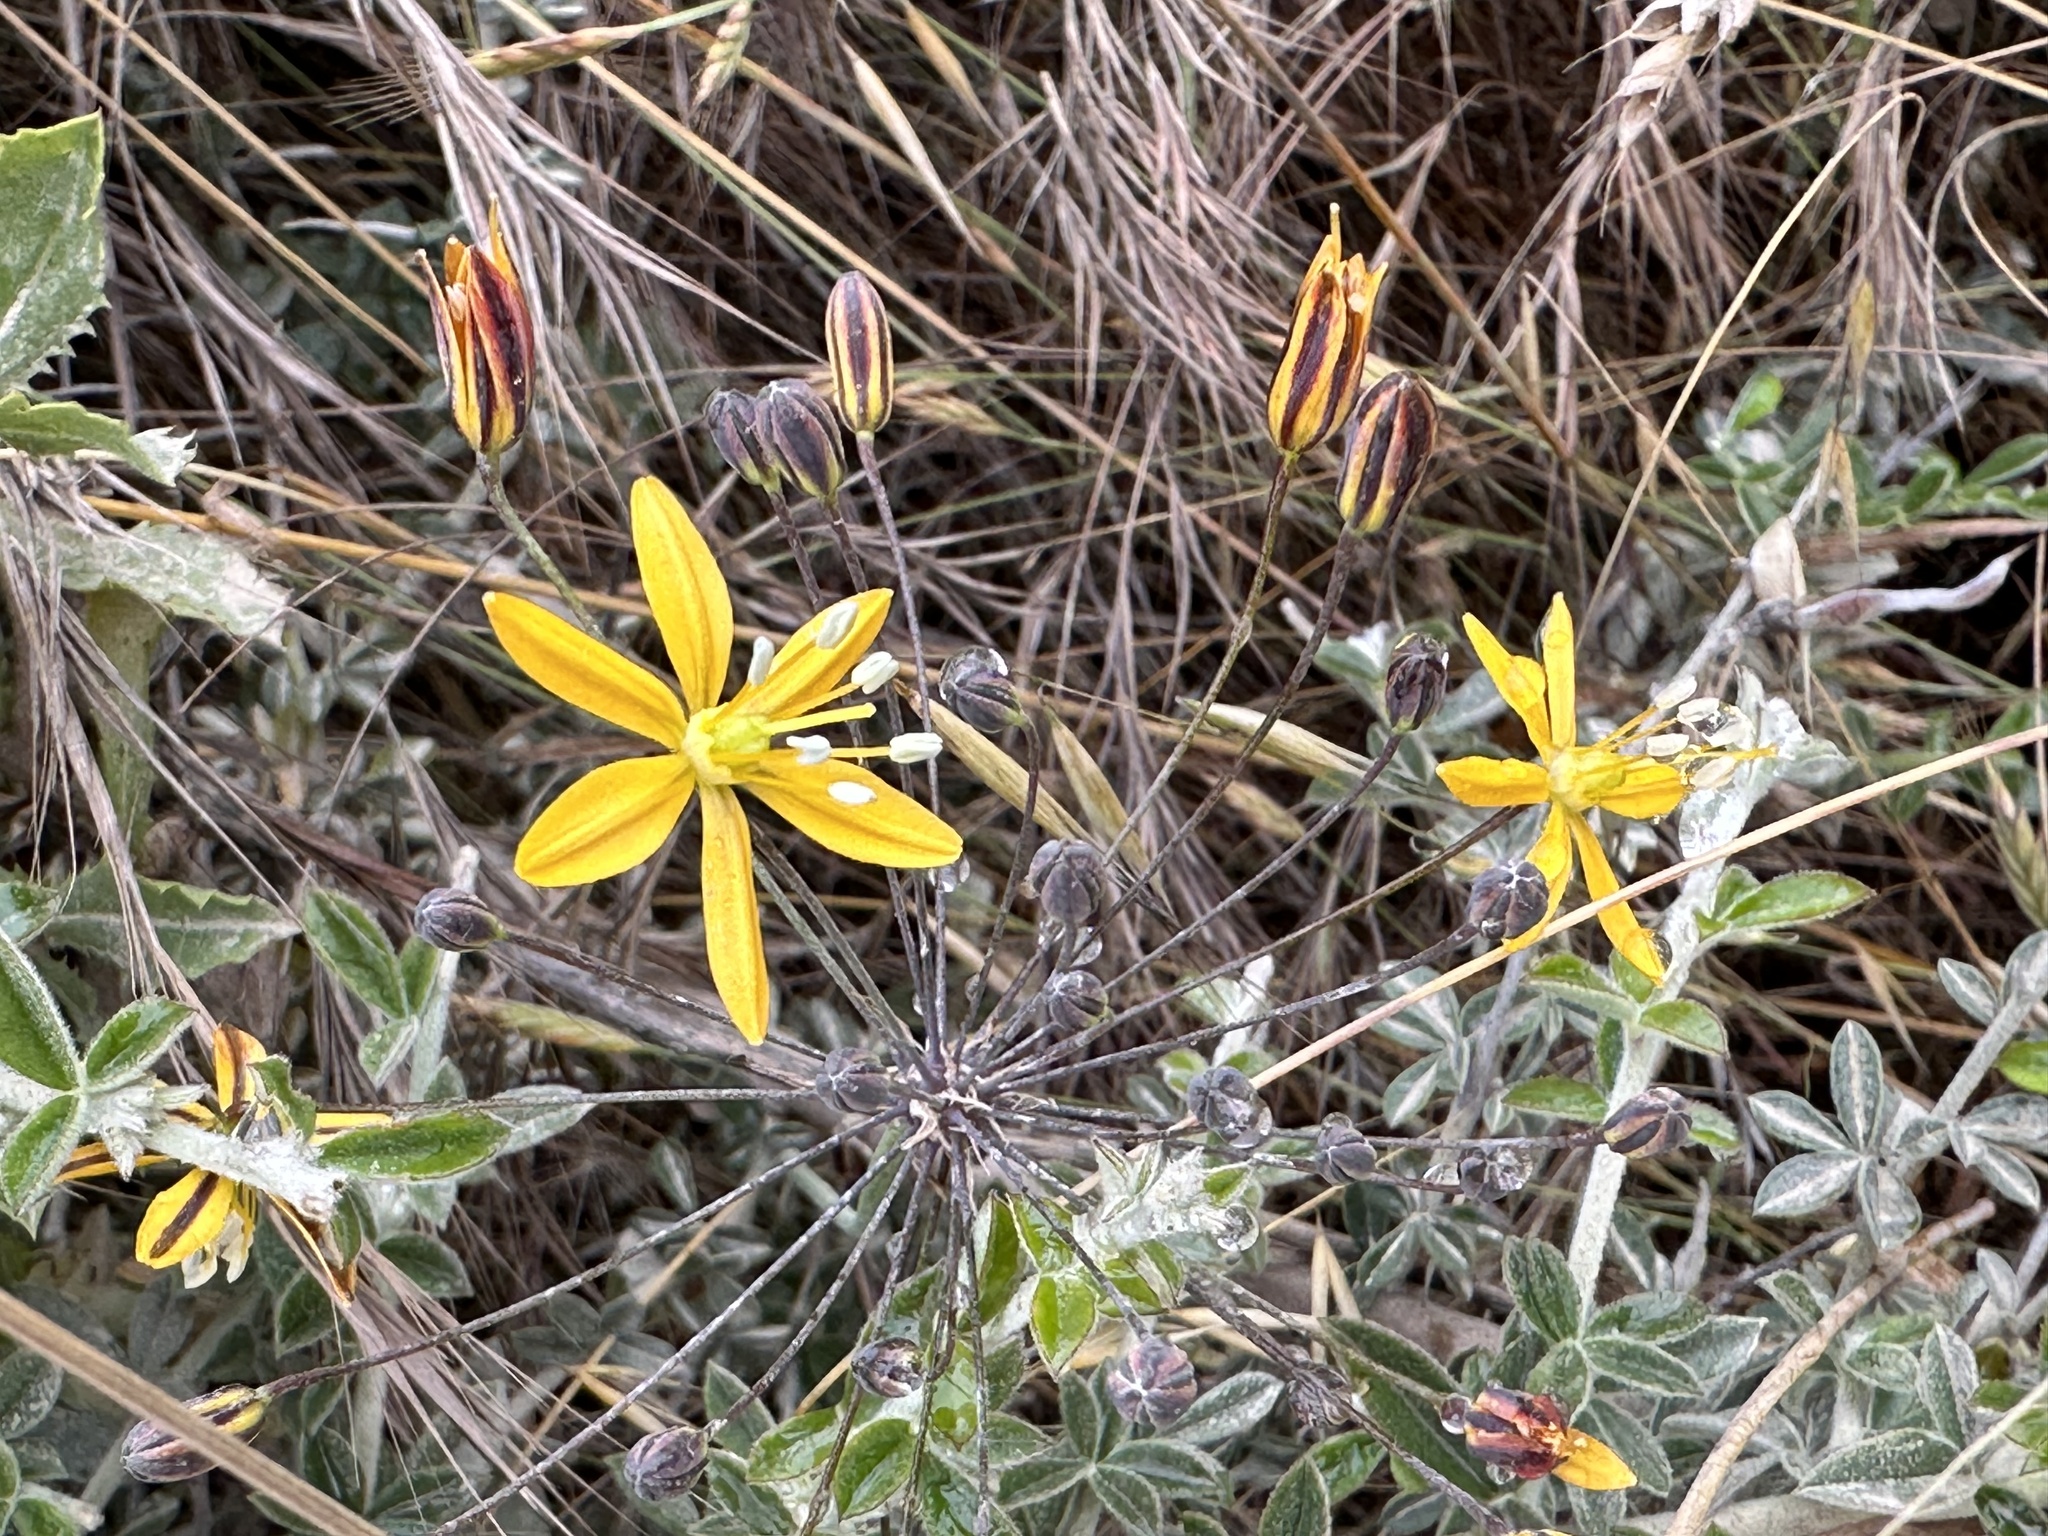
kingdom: Plantae
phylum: Tracheophyta
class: Liliopsida
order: Asparagales
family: Asparagaceae
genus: Bloomeria
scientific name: Bloomeria crocea
